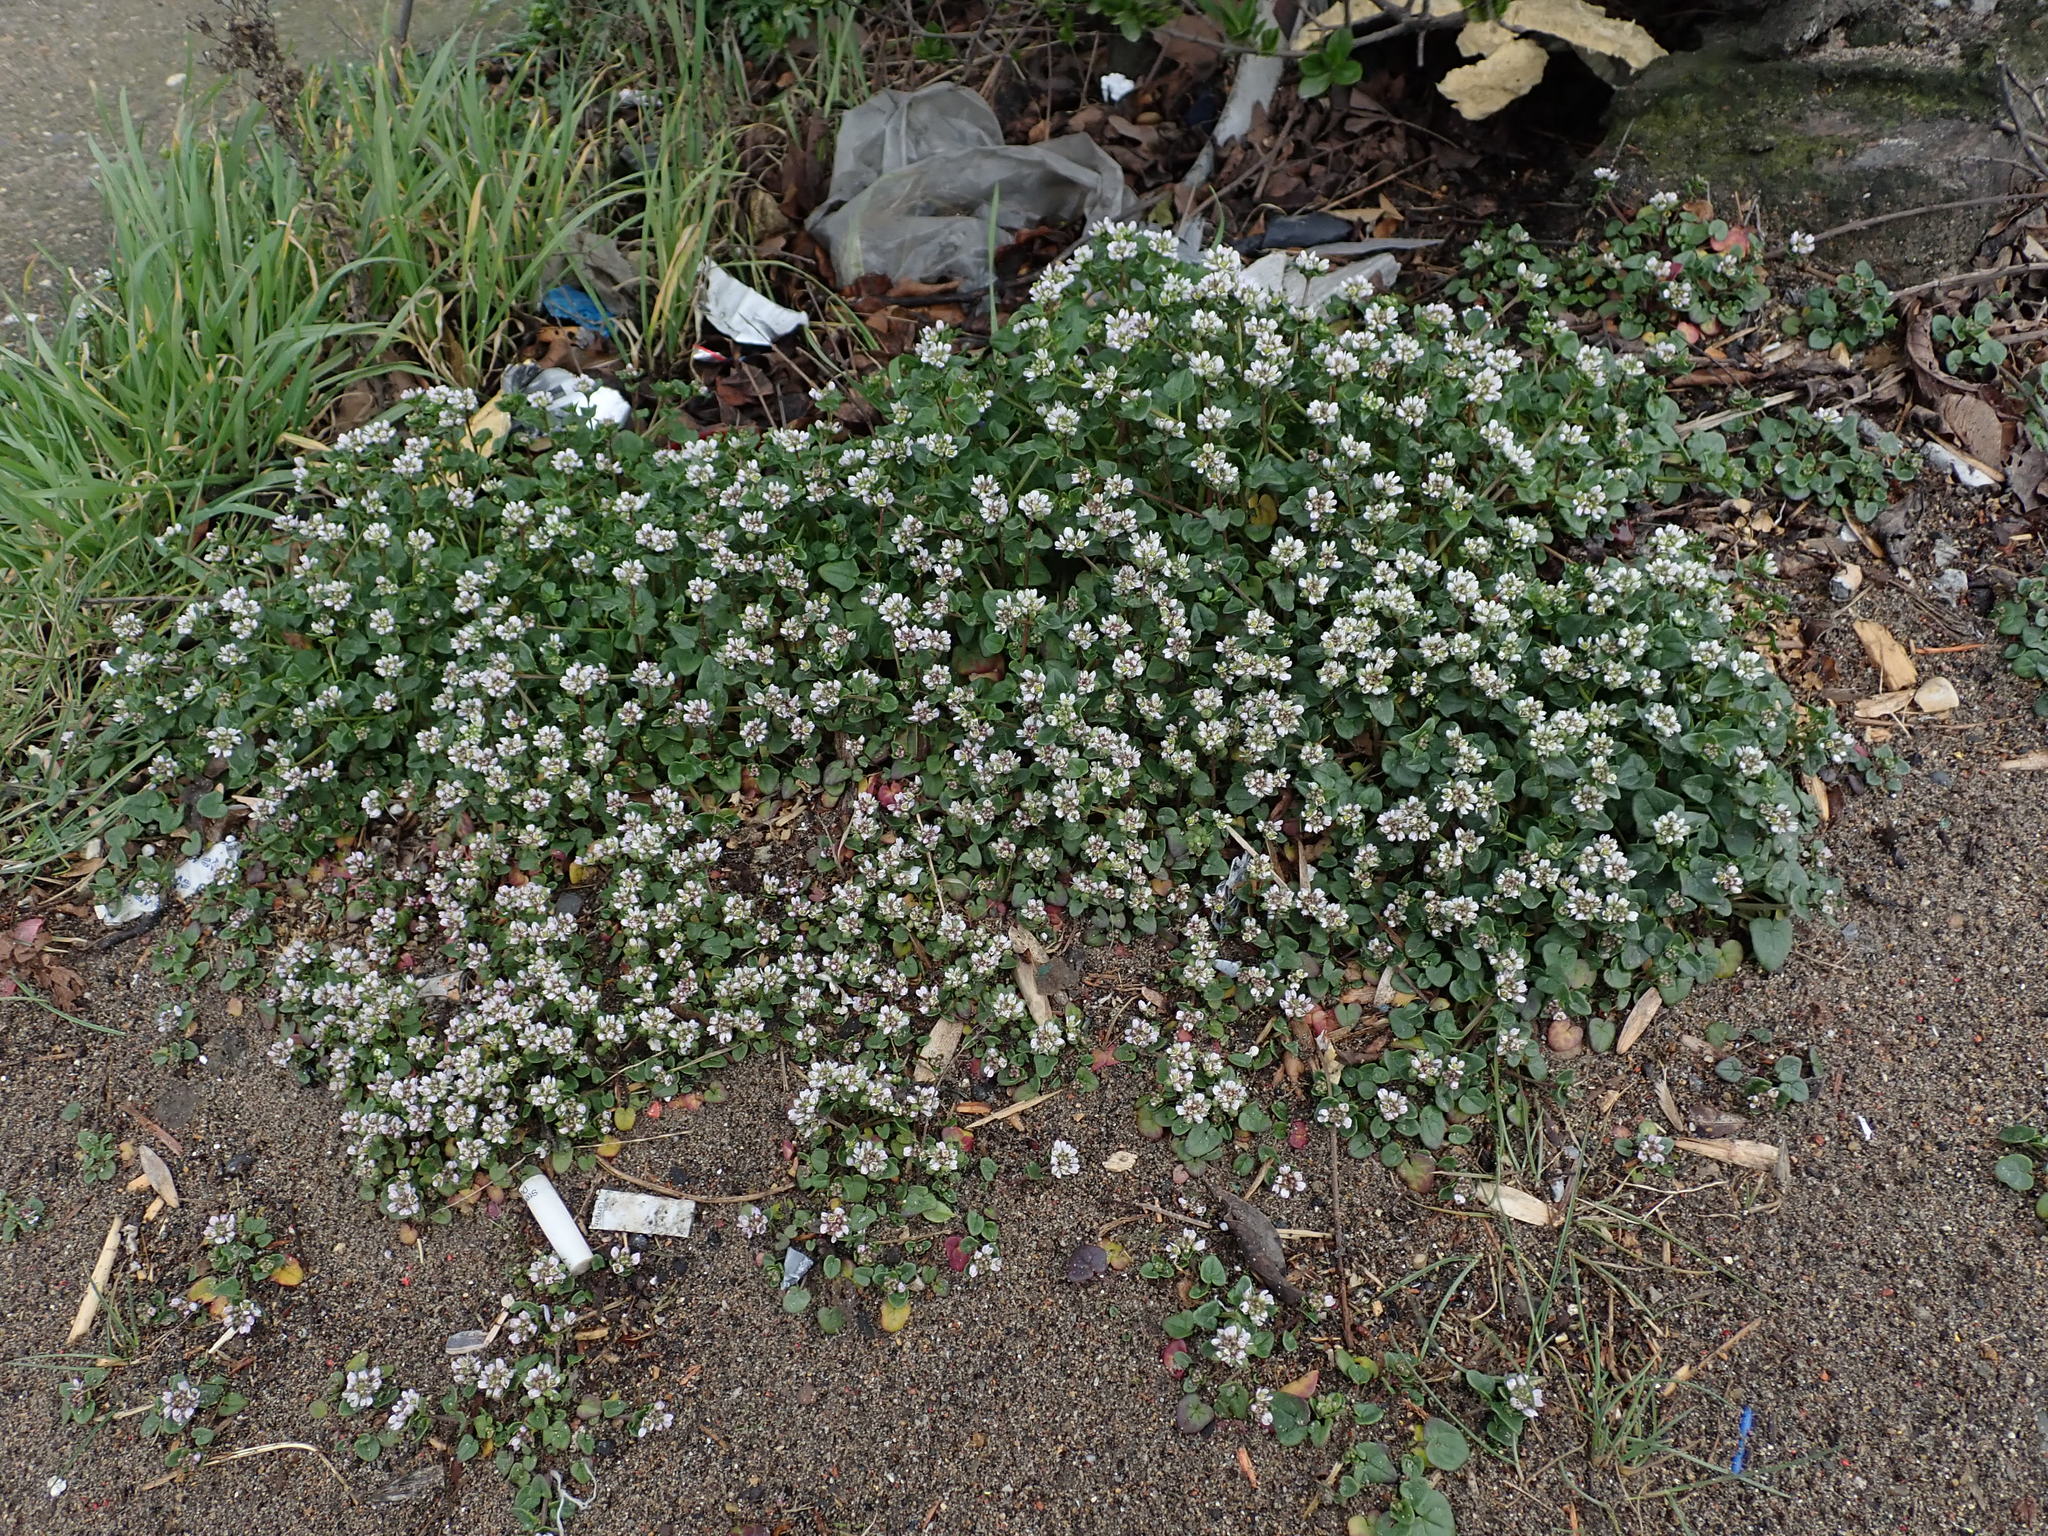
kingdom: Plantae
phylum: Tracheophyta
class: Magnoliopsida
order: Brassicales
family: Brassicaceae
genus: Cochlearia
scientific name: Cochlearia danica
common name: Early scurvygrass
